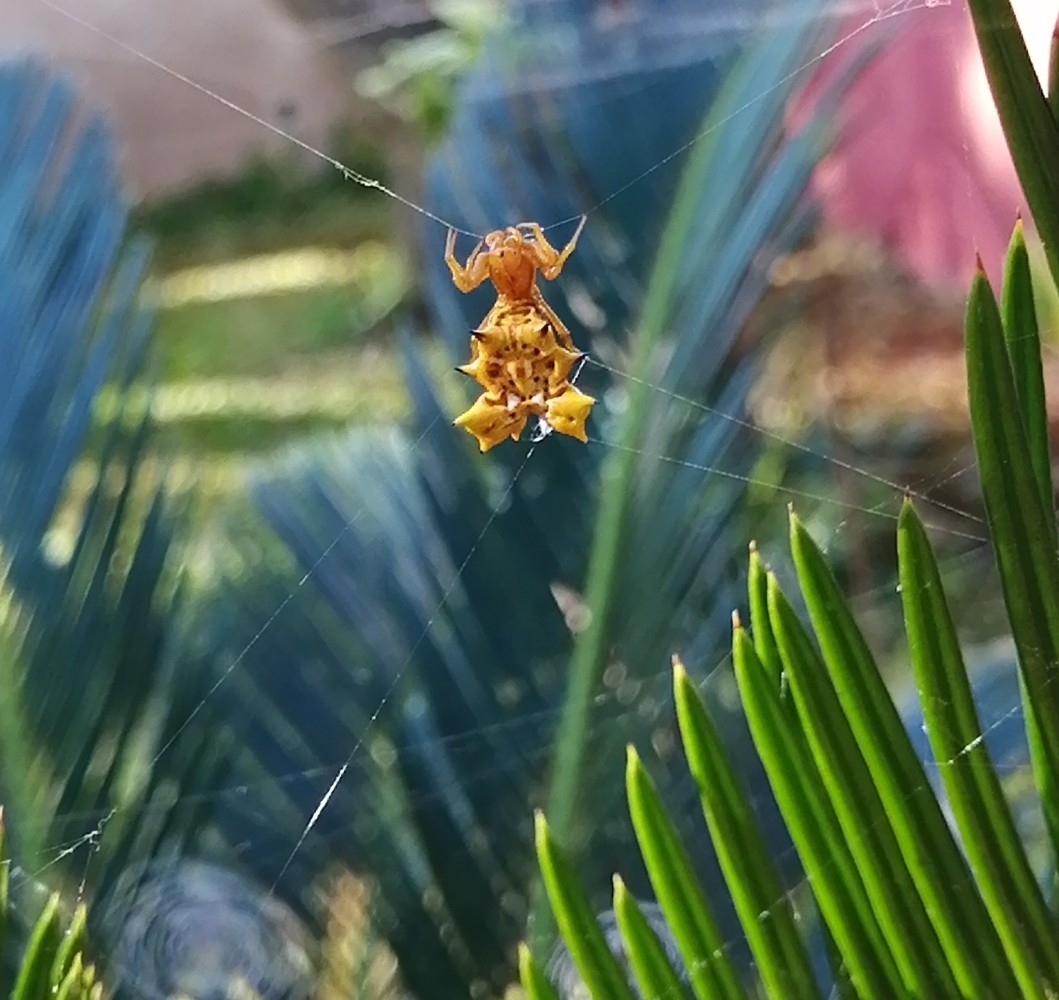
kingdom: Animalia
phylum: Arthropoda
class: Arachnida
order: Araneae
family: Araneidae
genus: Micrathena
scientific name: Micrathena gracilis
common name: Orb weavers
